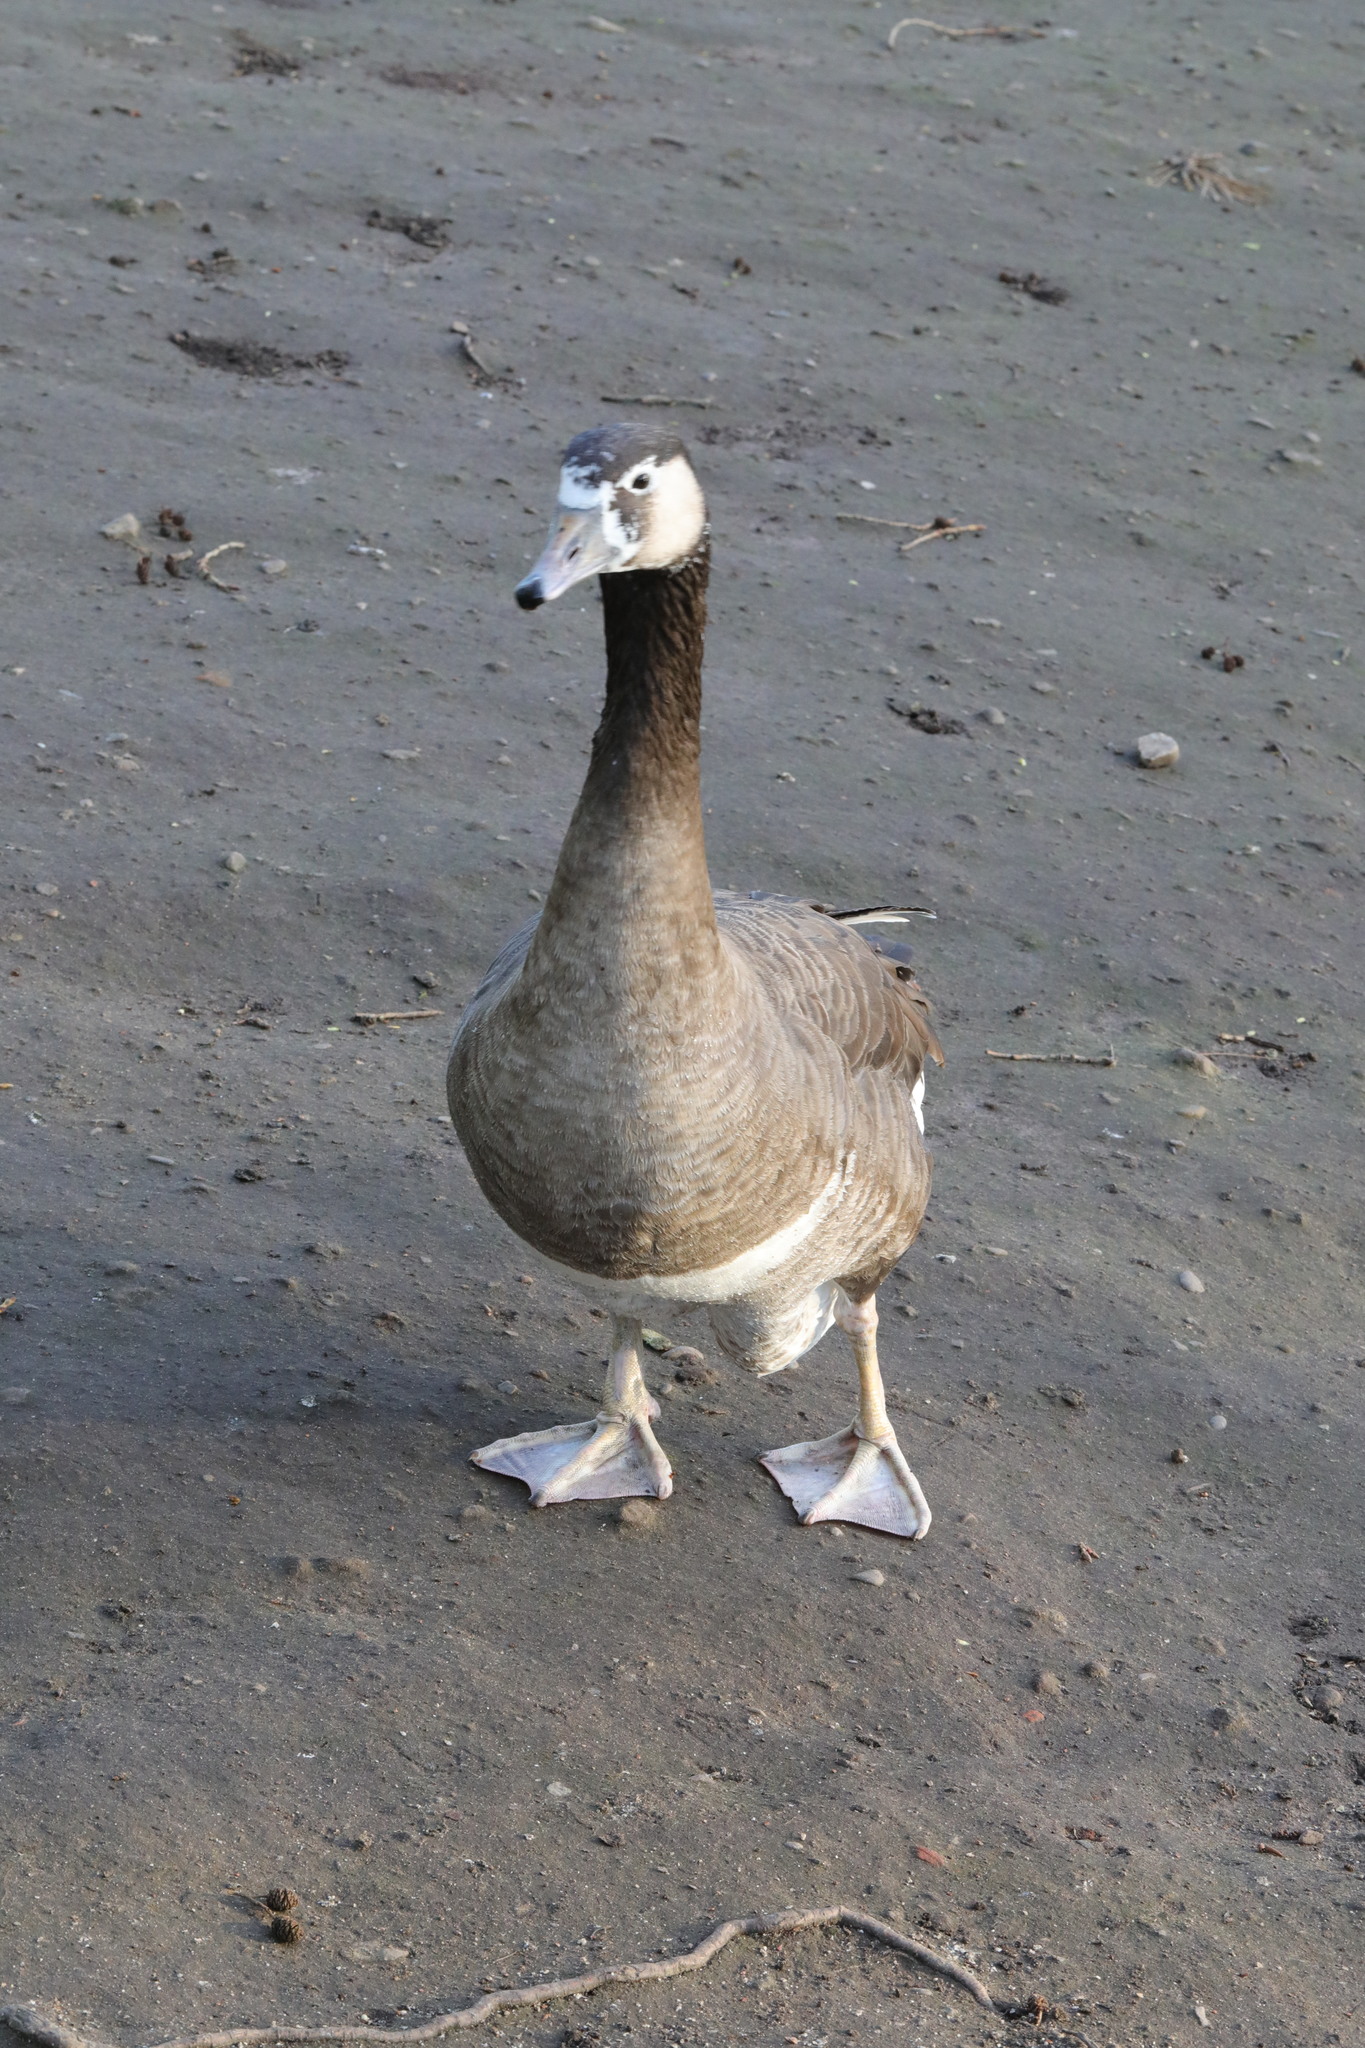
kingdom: Animalia
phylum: Chordata
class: Aves
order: Anseriformes
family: Anatidae
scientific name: Anatidae
